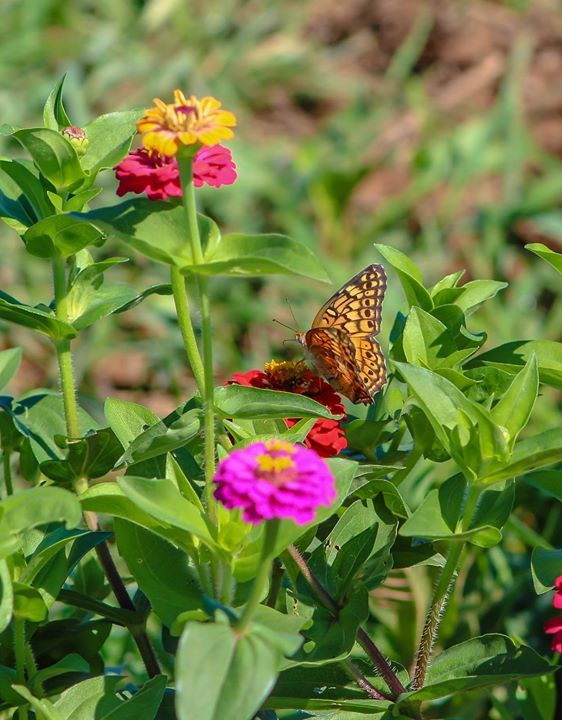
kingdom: Animalia
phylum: Arthropoda
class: Insecta
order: Lepidoptera
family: Nymphalidae
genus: Euptoieta
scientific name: Euptoieta claudia
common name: Variegated fritillary
